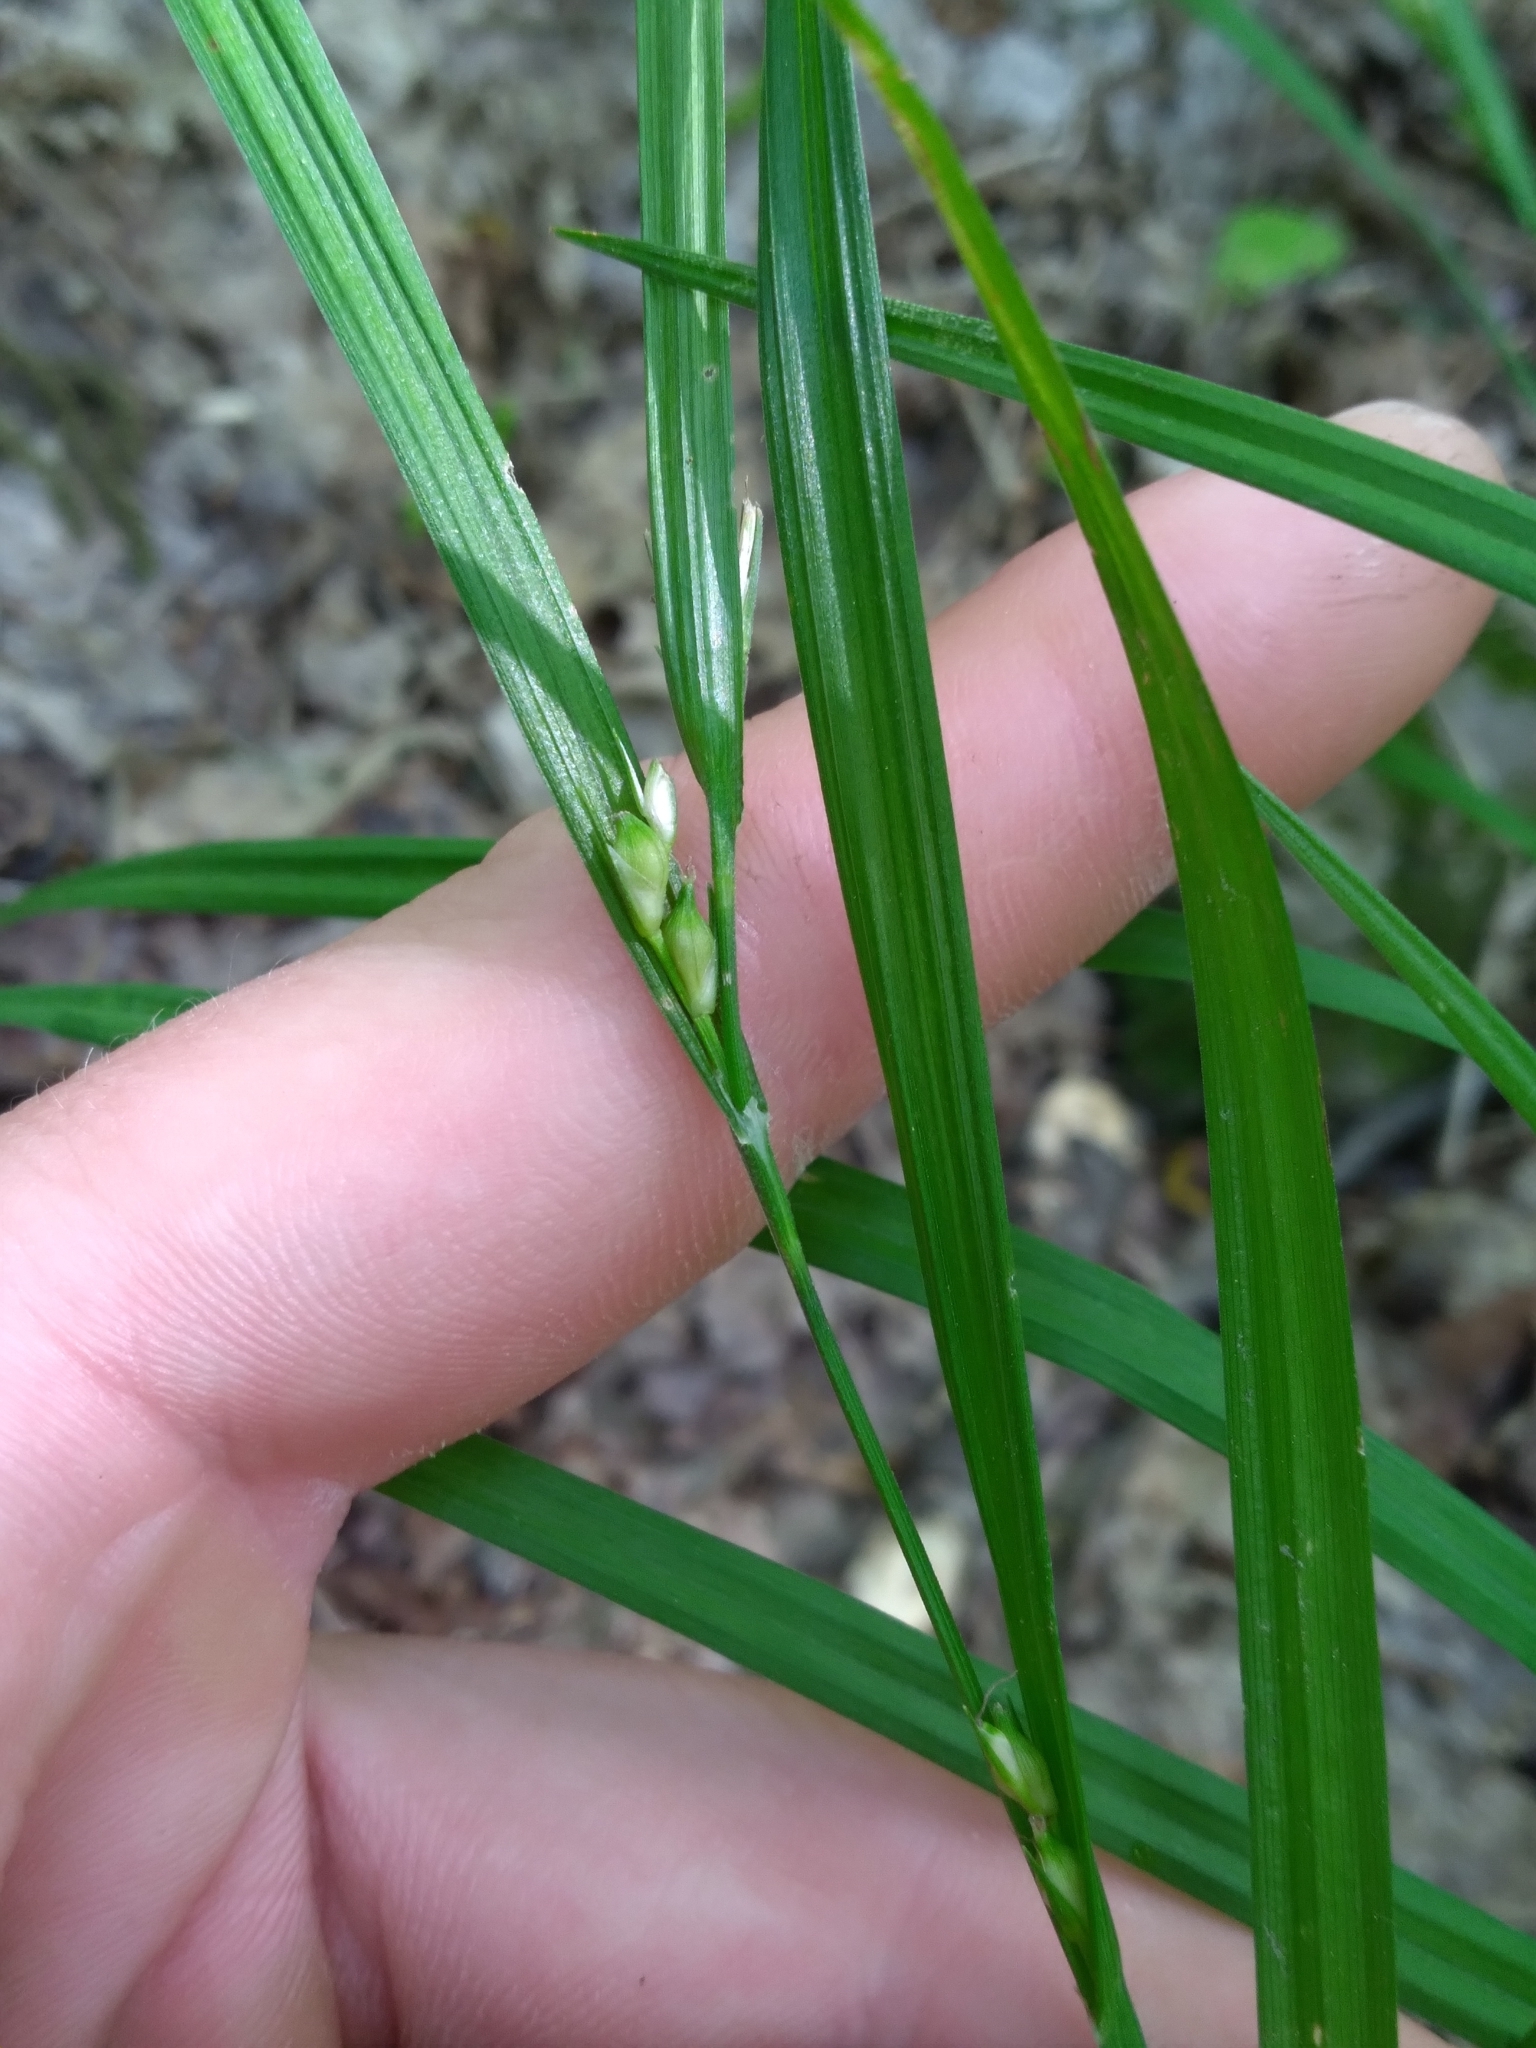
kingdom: Plantae
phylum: Tracheophyta
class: Liliopsida
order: Poales
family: Cyperaceae
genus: Carex
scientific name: Carex hitchcockiana
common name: Hairy grey sedge
